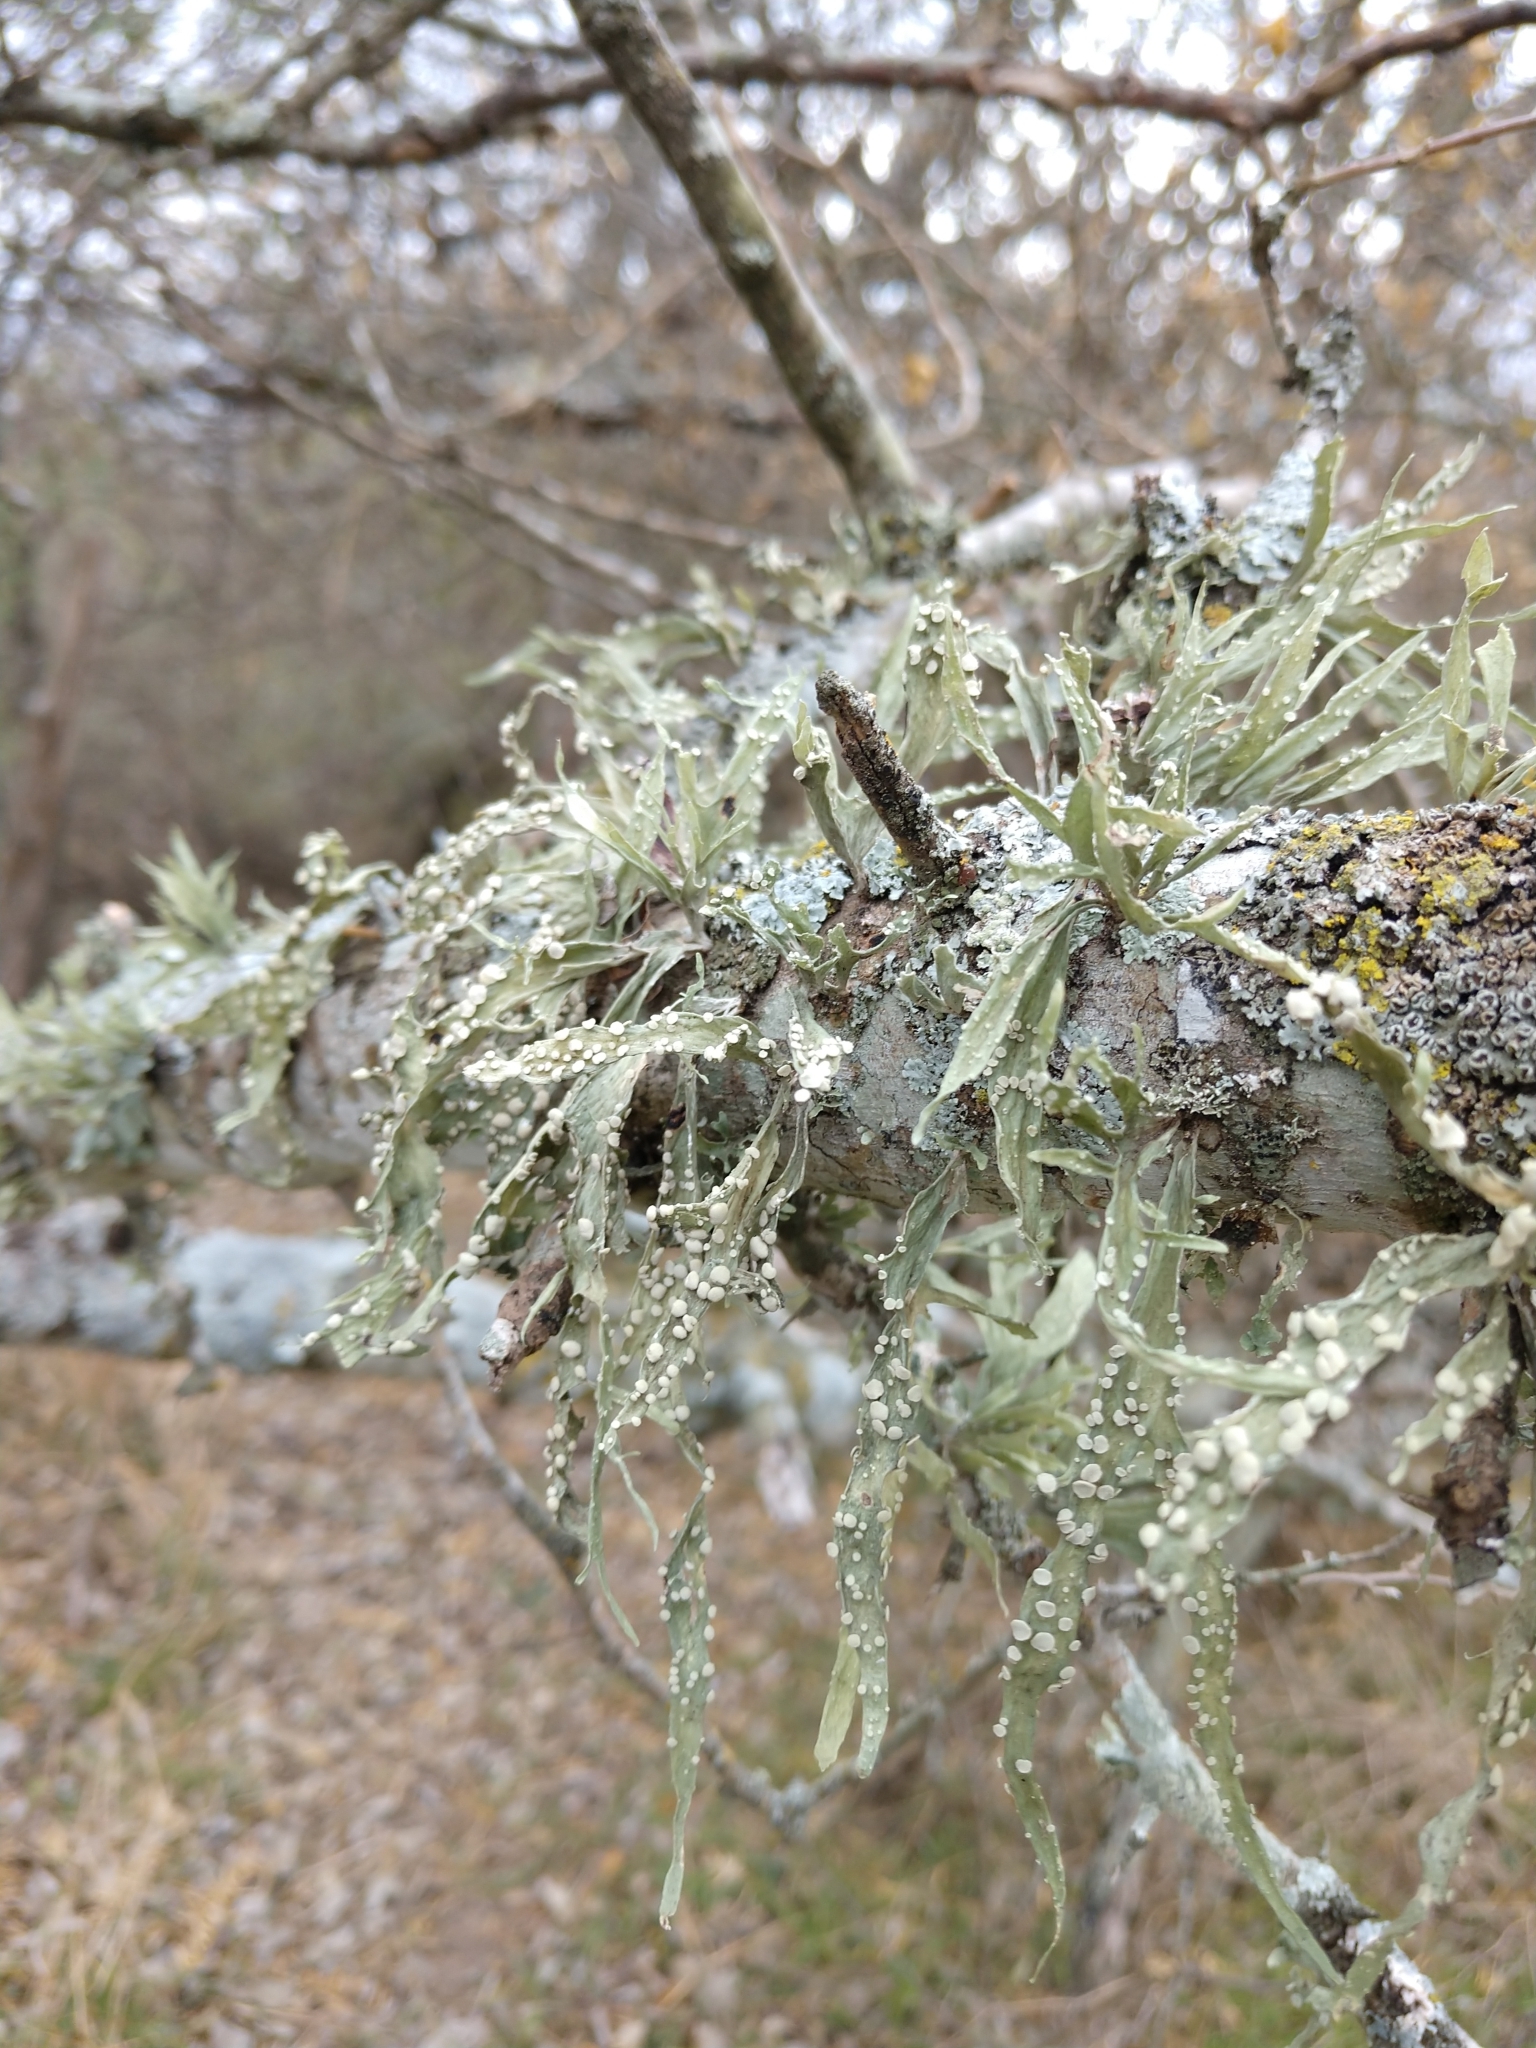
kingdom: Fungi
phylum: Ascomycota
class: Lecanoromycetes
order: Lecanorales
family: Ramalinaceae
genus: Ramalina
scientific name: Ramalina celastri
